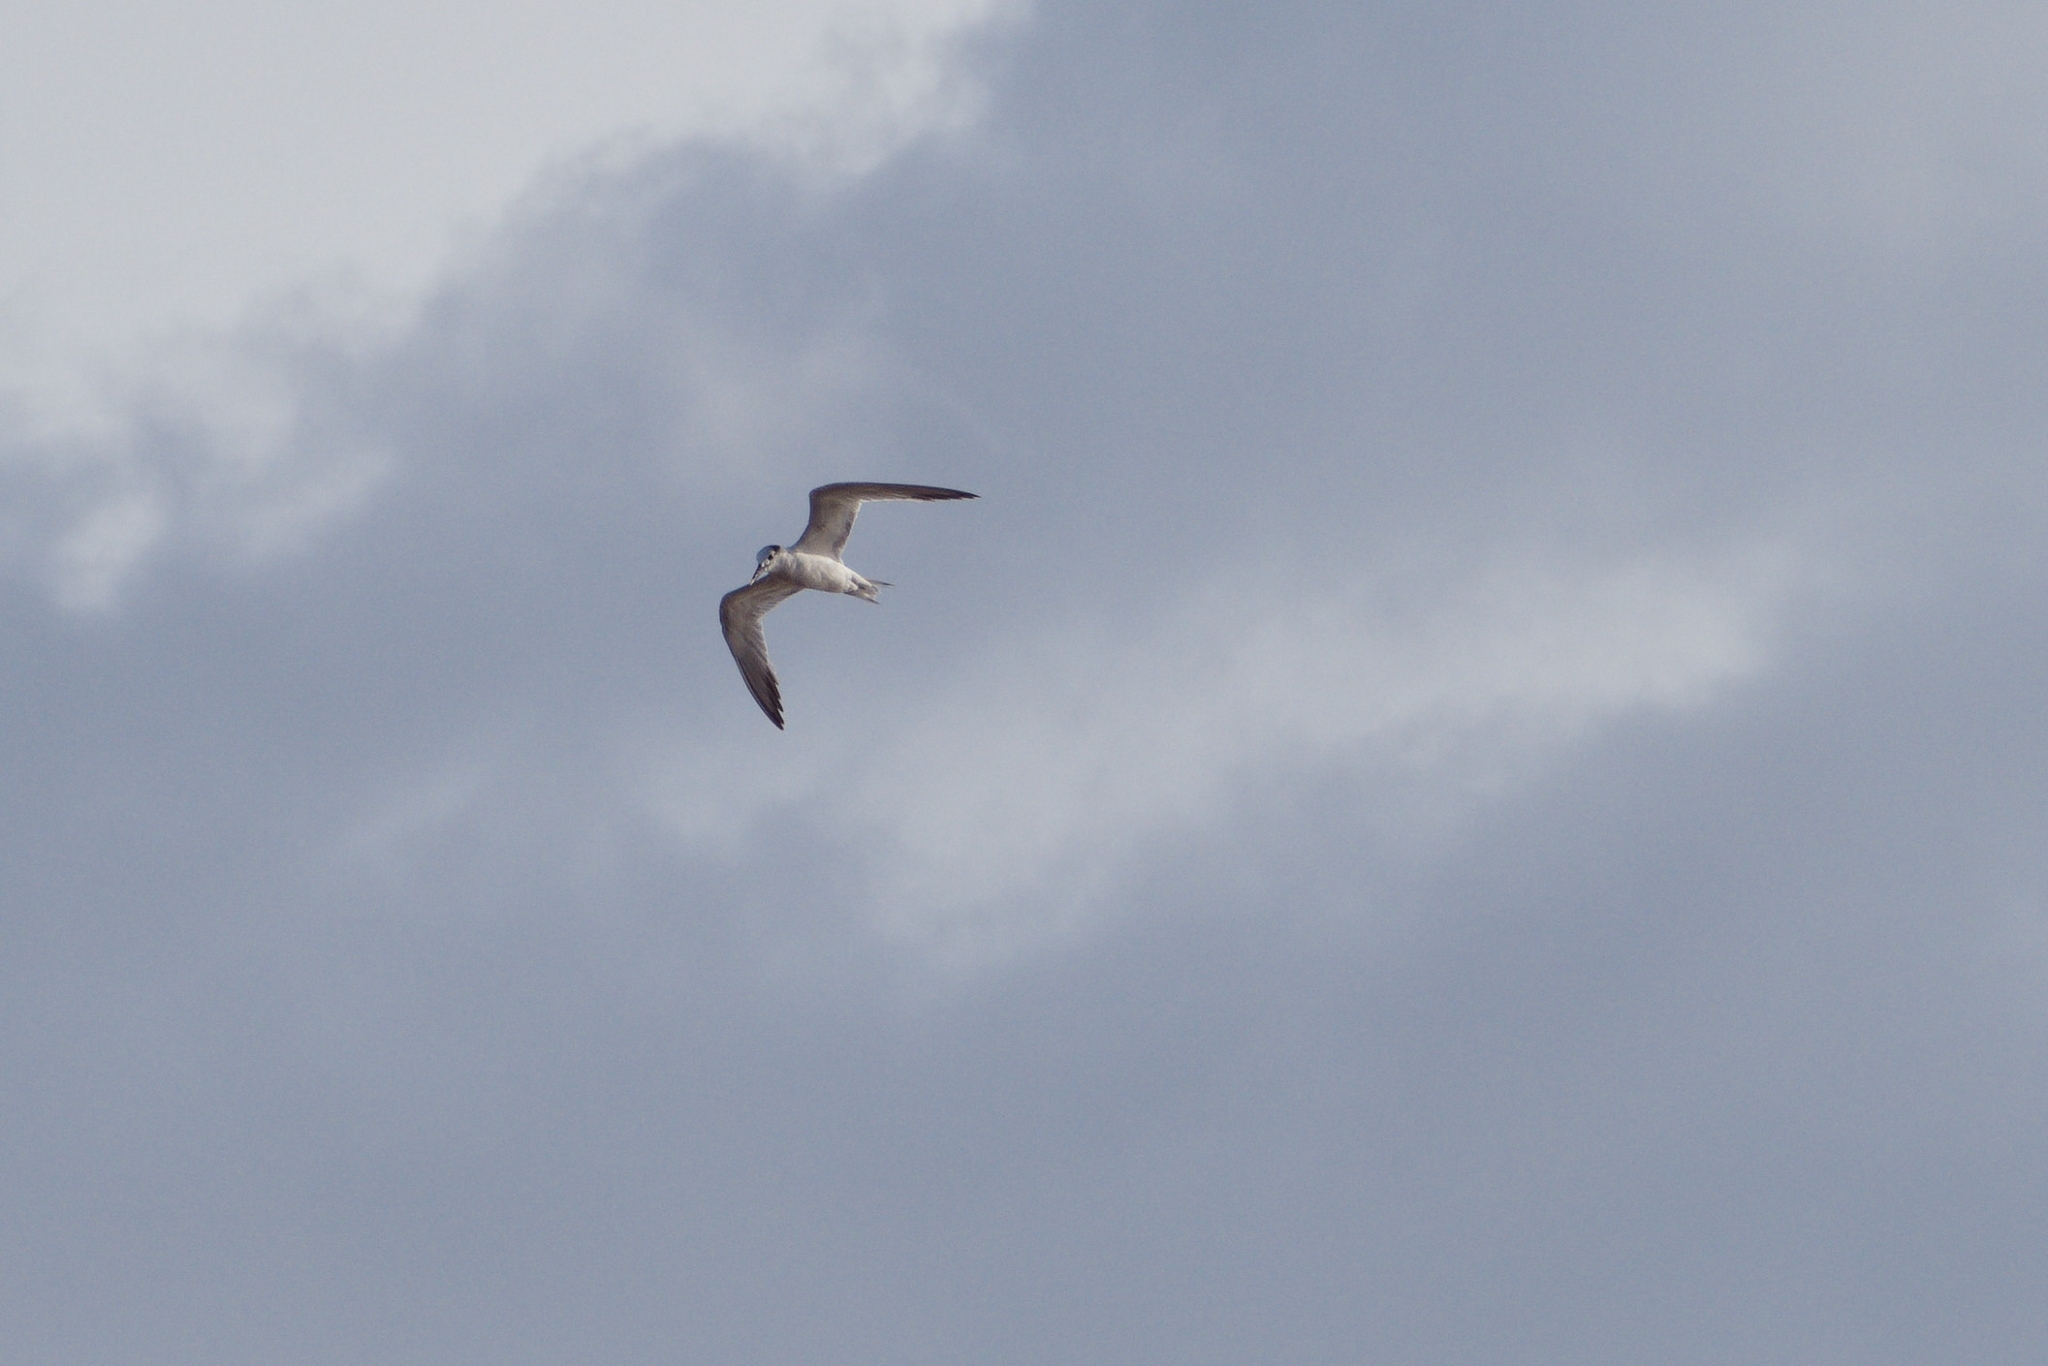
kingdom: Animalia
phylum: Chordata
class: Aves
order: Charadriiformes
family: Laridae
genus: Thalasseus
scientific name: Thalasseus sandvicensis
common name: Sandwich tern
